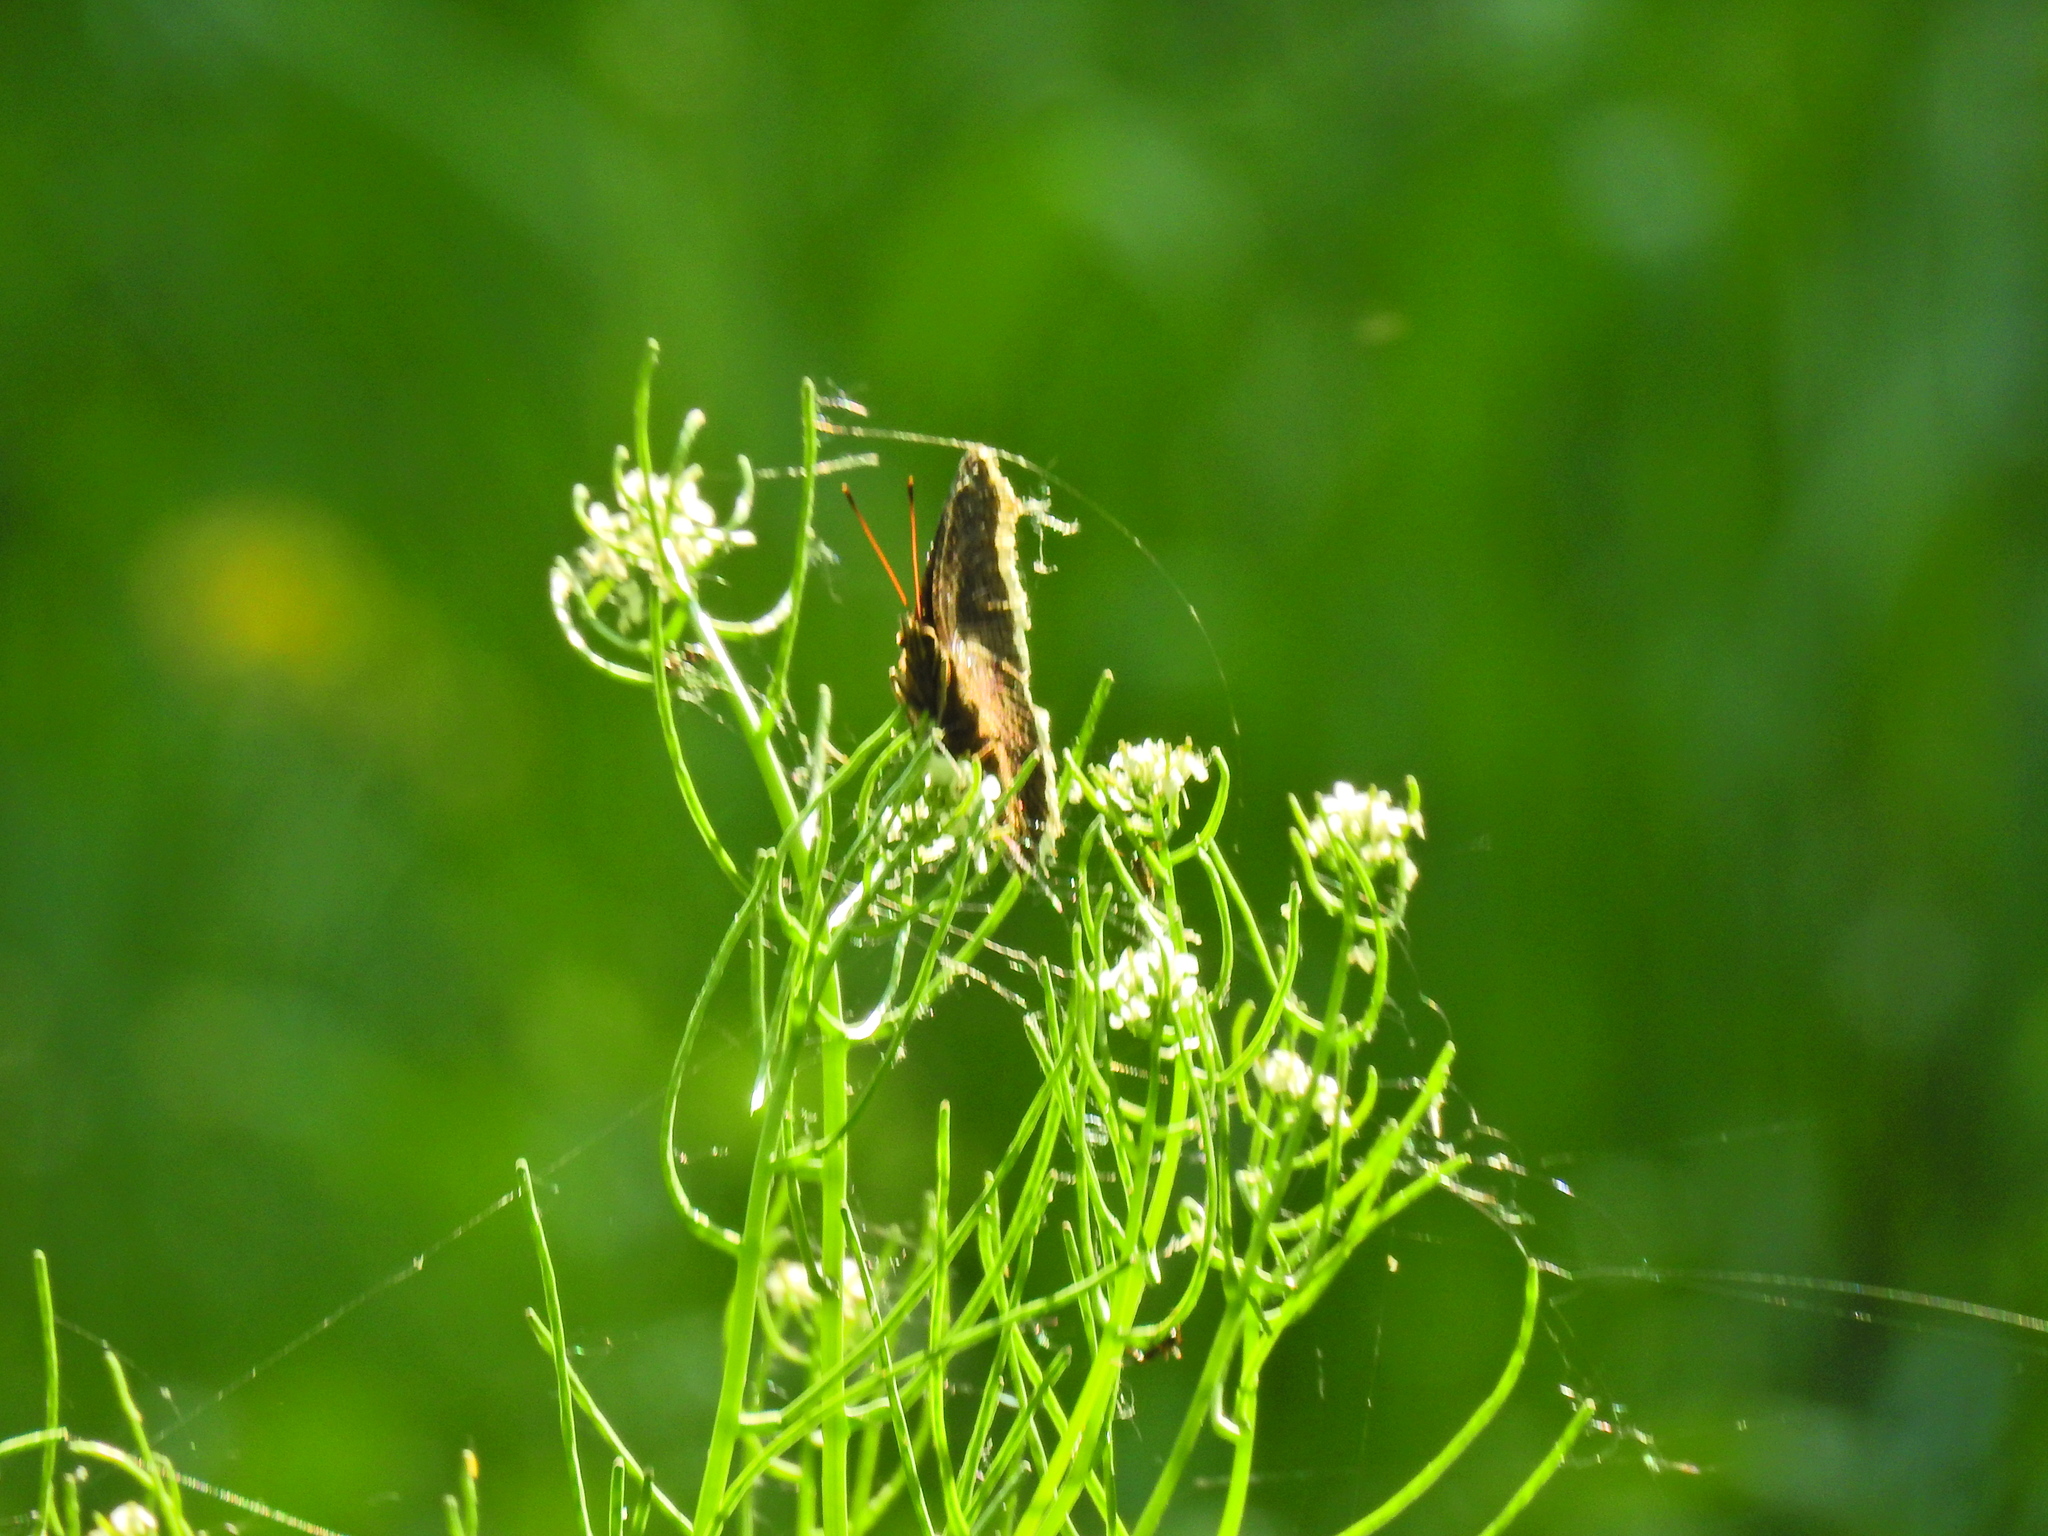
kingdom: Animalia
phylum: Arthropoda
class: Insecta
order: Lepidoptera
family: Nymphalidae
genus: Nymphalis
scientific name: Nymphalis antiopa
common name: Camberwell beauty
